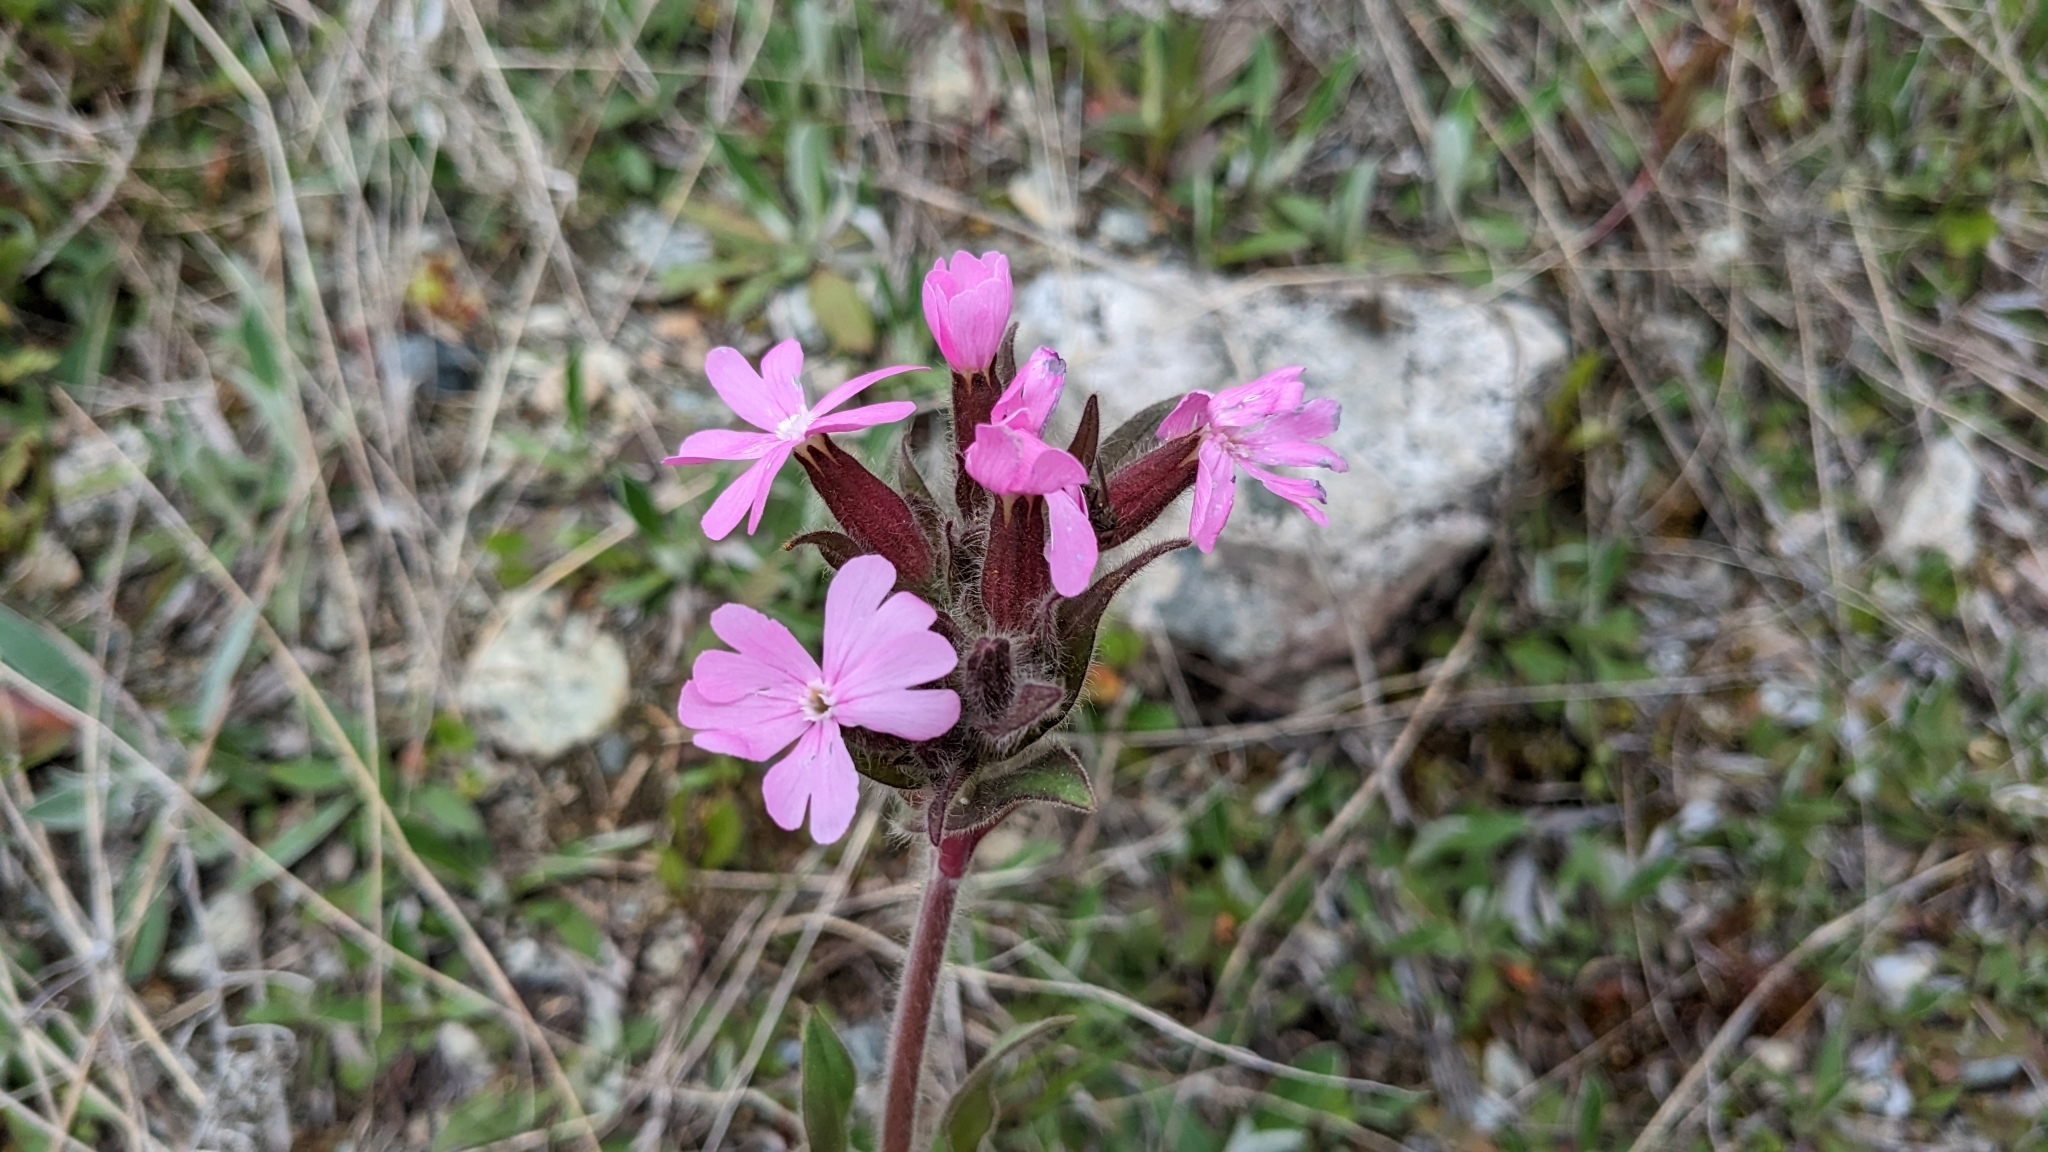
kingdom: Plantae
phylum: Tracheophyta
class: Magnoliopsida
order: Caryophyllales
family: Caryophyllaceae
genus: Silene
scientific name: Silene dioica
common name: Red campion
